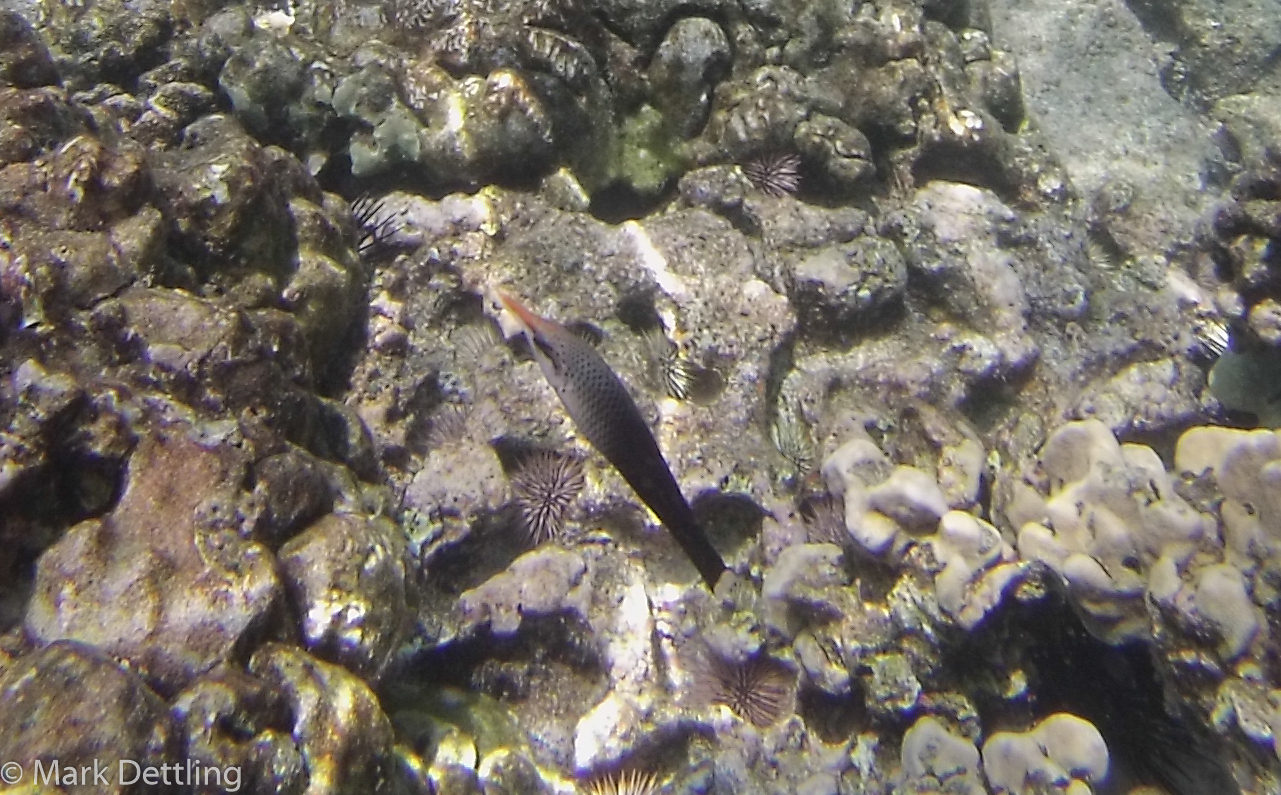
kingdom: Animalia
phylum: Chordata
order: Perciformes
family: Labridae
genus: Gomphosus
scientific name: Gomphosus varius
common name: Bird wrasse
